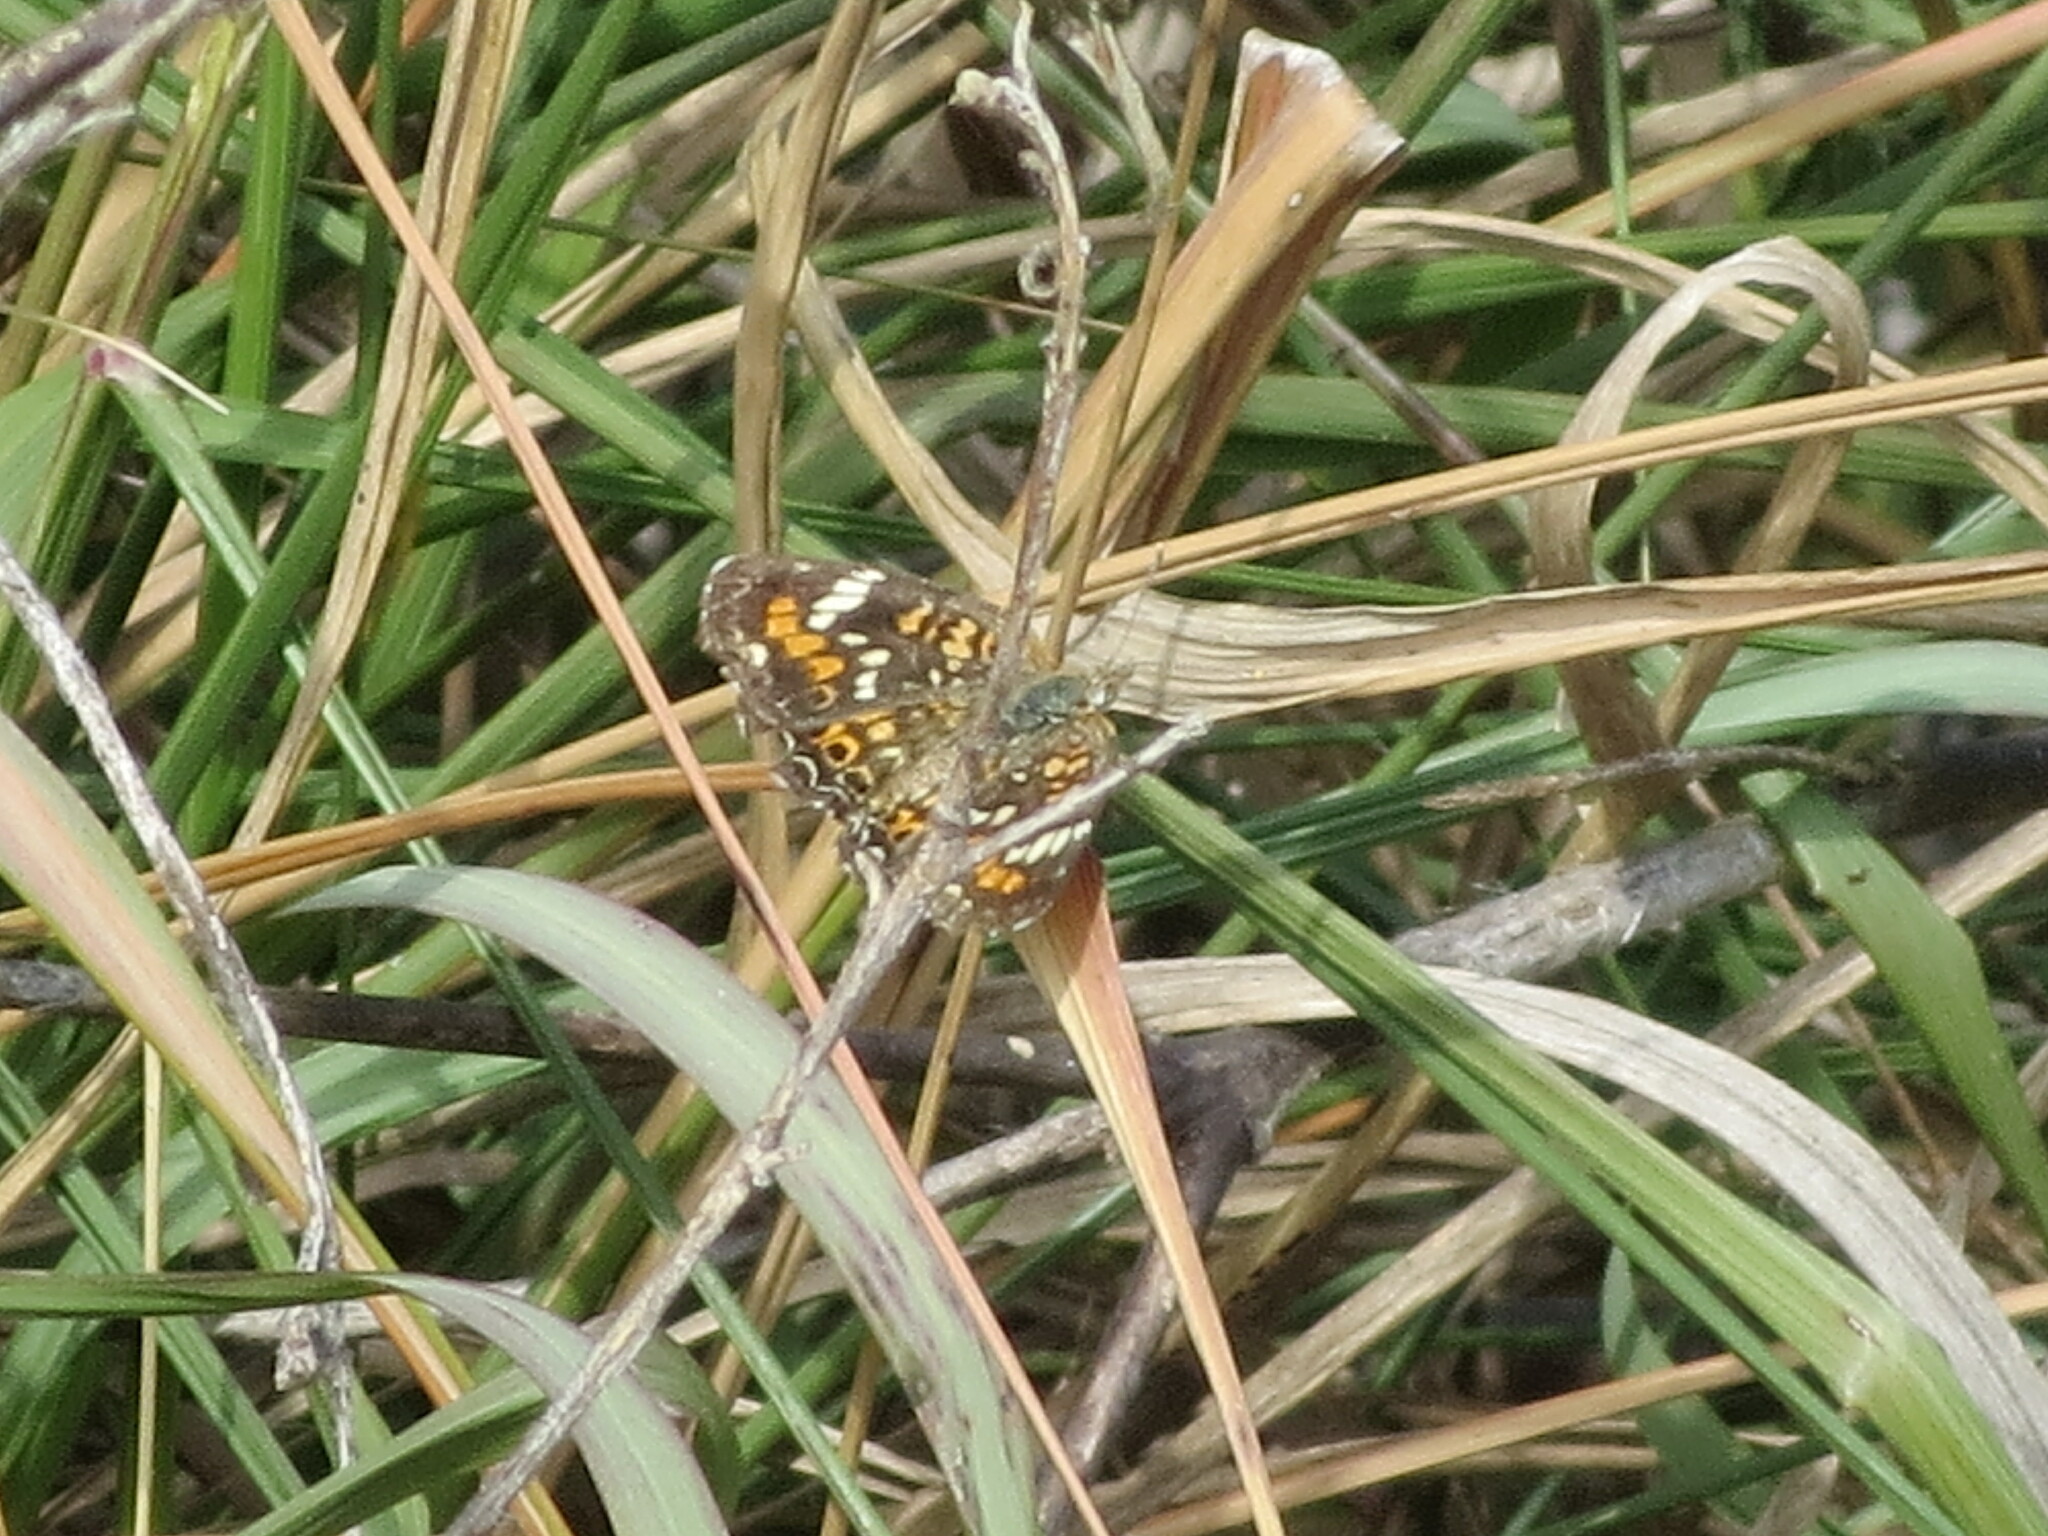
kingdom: Animalia
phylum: Arthropoda
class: Insecta
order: Lepidoptera
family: Nymphalidae
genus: Phyciodes
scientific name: Phyciodes phaon
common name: Phaon crescent
